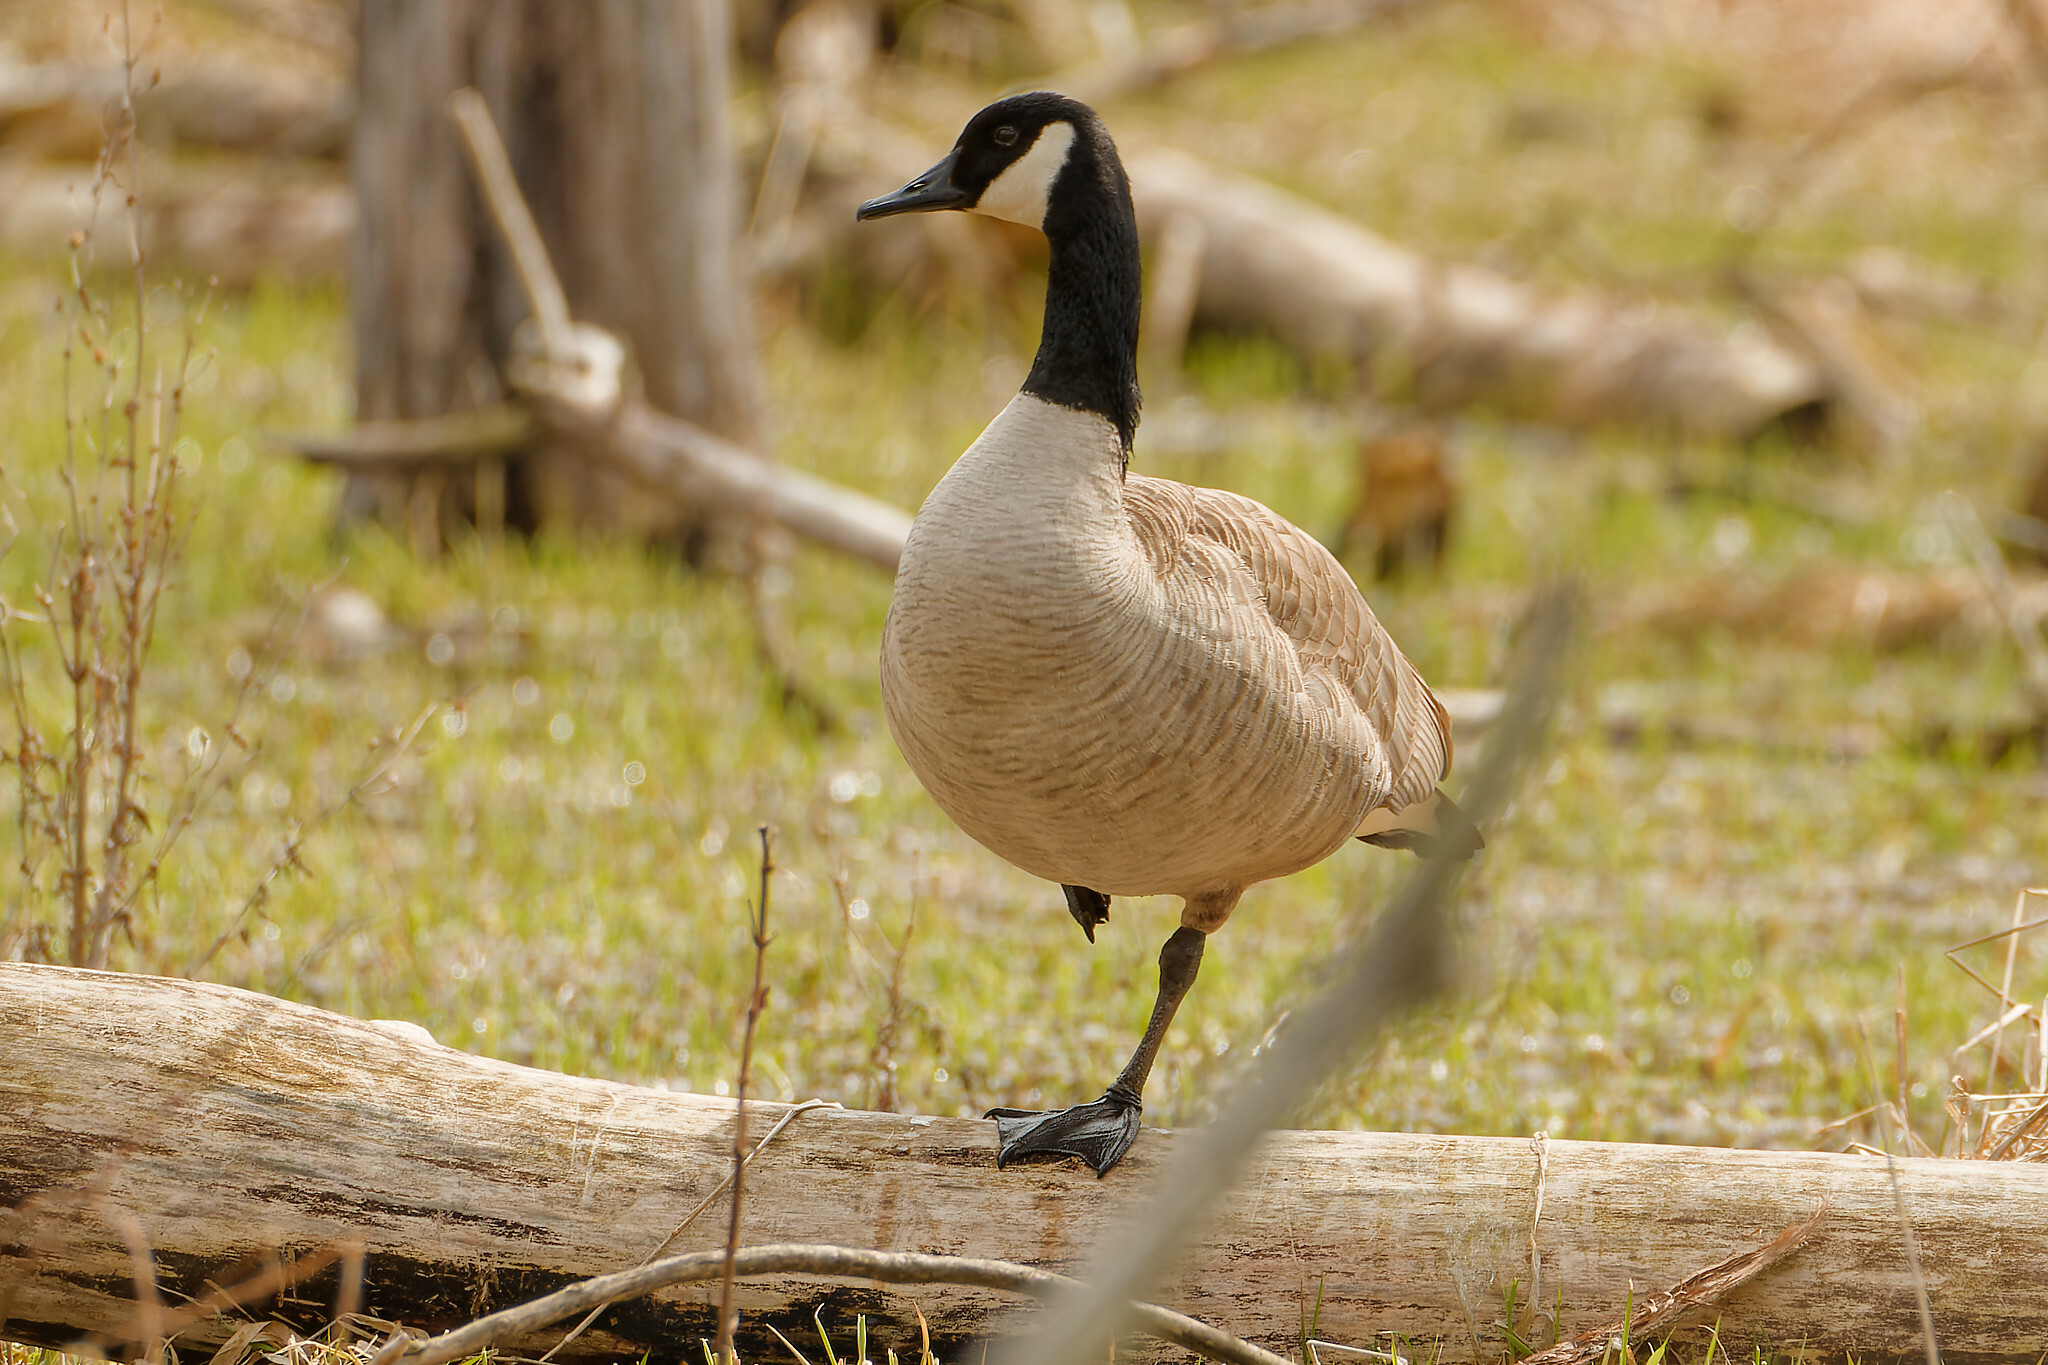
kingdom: Animalia
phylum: Chordata
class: Aves
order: Anseriformes
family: Anatidae
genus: Branta
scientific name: Branta canadensis
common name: Canada goose
